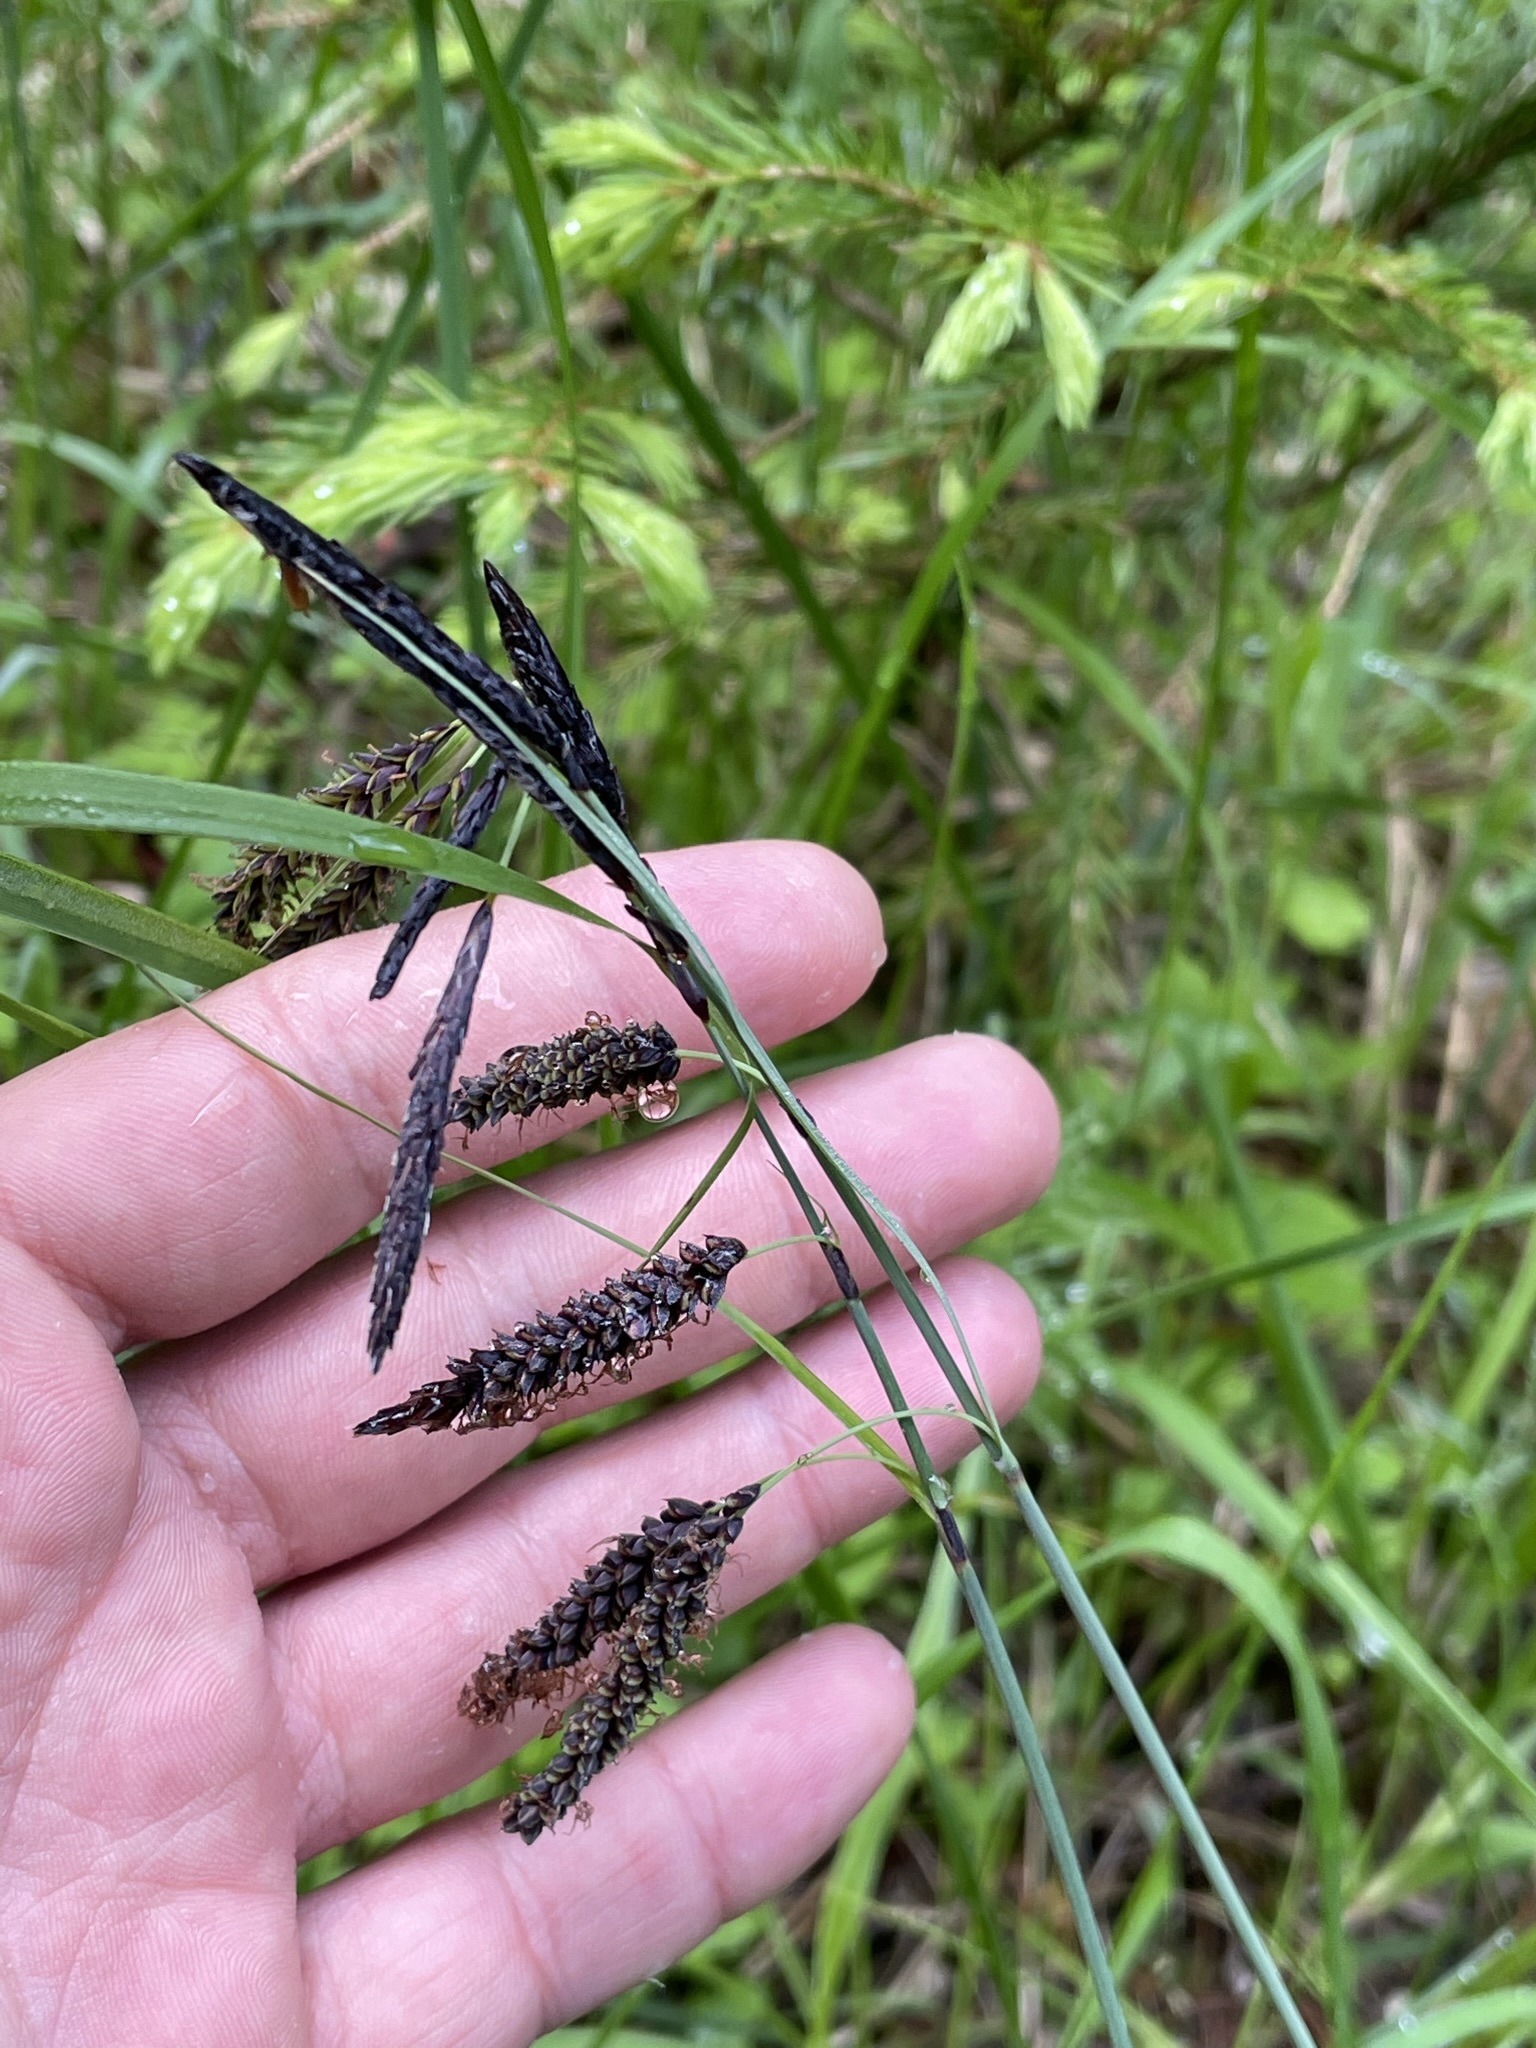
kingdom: Plantae
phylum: Tracheophyta
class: Liliopsida
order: Poales
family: Cyperaceae
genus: Carex
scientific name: Carex flacca
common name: Glaucous sedge
